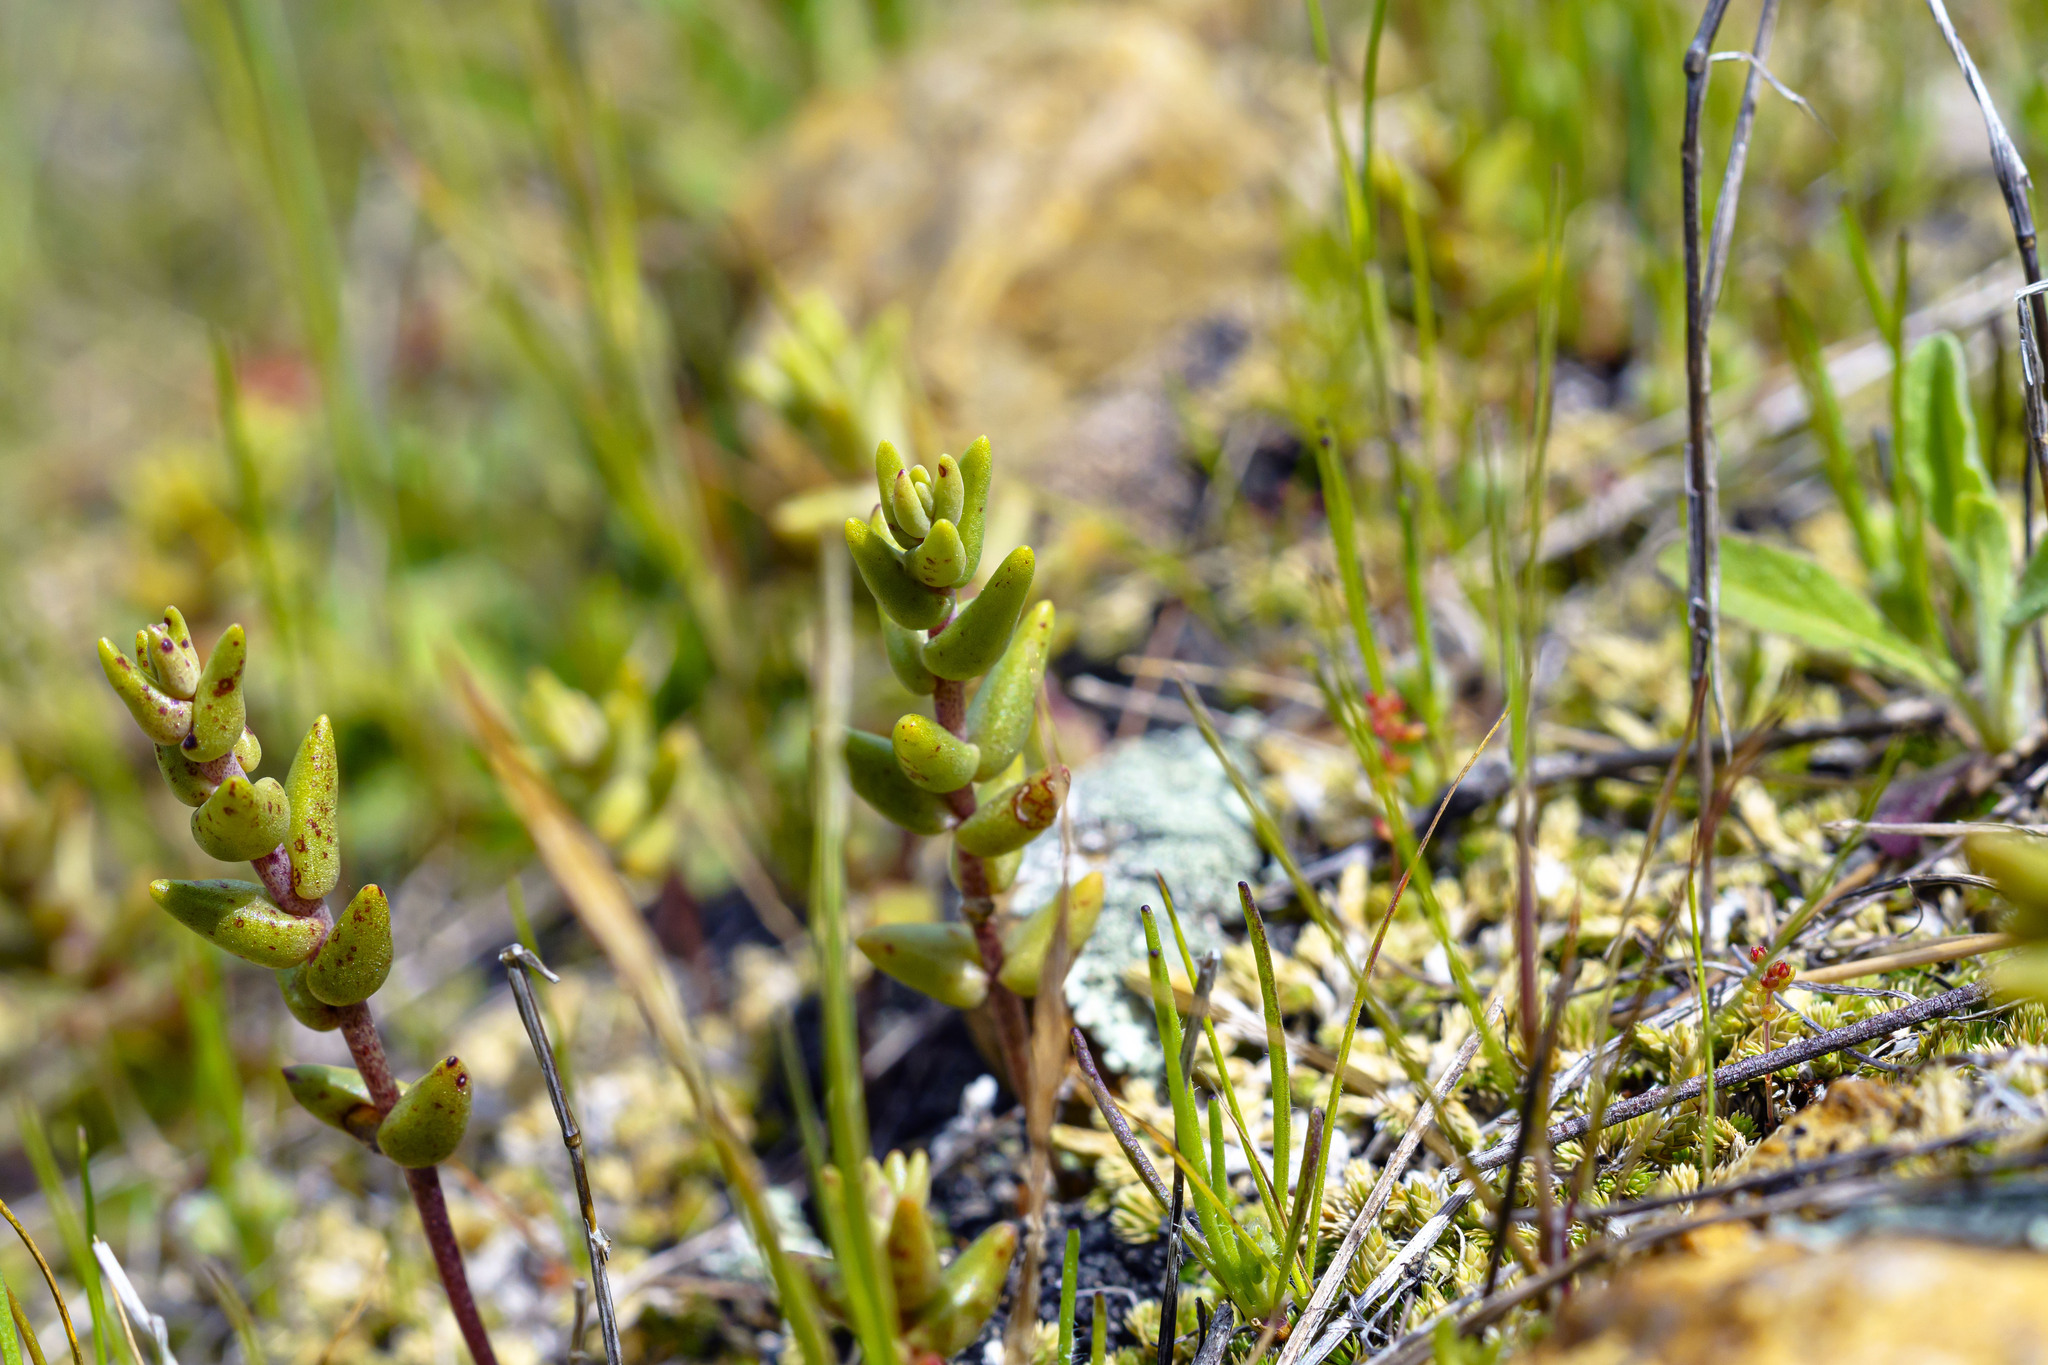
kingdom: Plantae
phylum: Tracheophyta
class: Magnoliopsida
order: Saxifragales
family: Crassulaceae
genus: Dudleya
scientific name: Dudleya variegata
